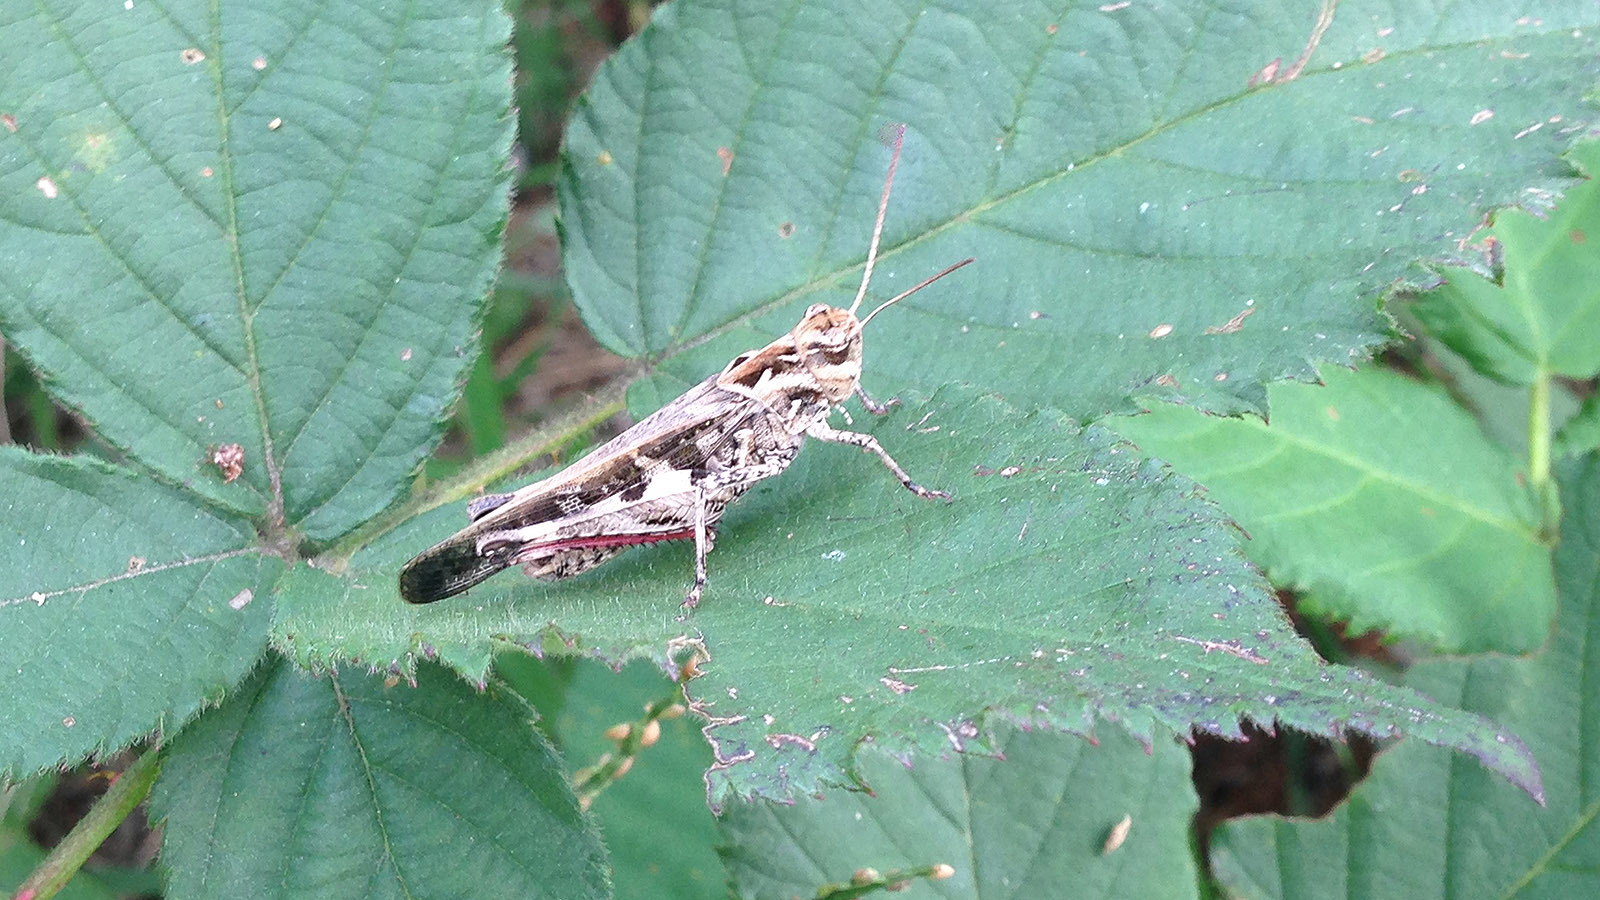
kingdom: Animalia
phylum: Arthropoda
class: Insecta
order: Orthoptera
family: Acrididae
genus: Oedaleus
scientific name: Oedaleus infernalis
